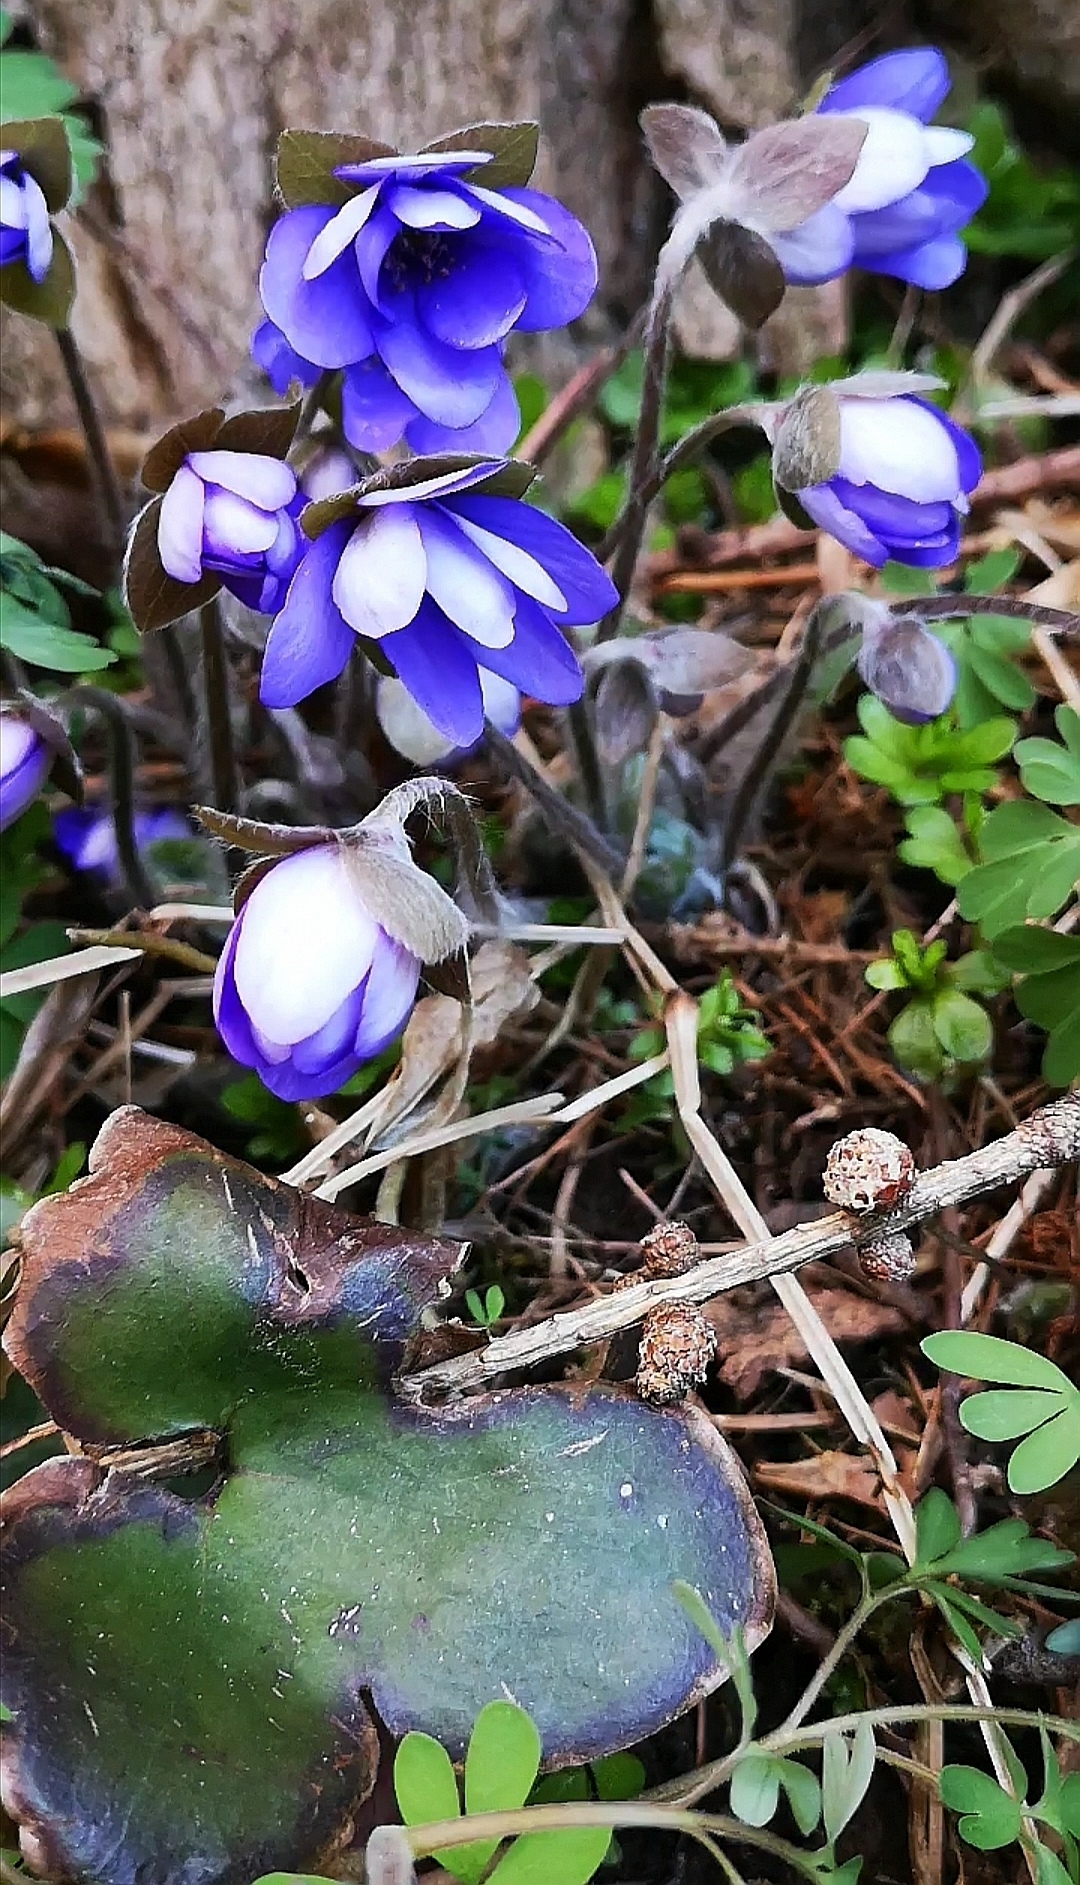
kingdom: Plantae
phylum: Tracheophyta
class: Magnoliopsida
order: Ranunculales
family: Ranunculaceae
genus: Hepatica
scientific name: Hepatica nobilis
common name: Liverleaf
